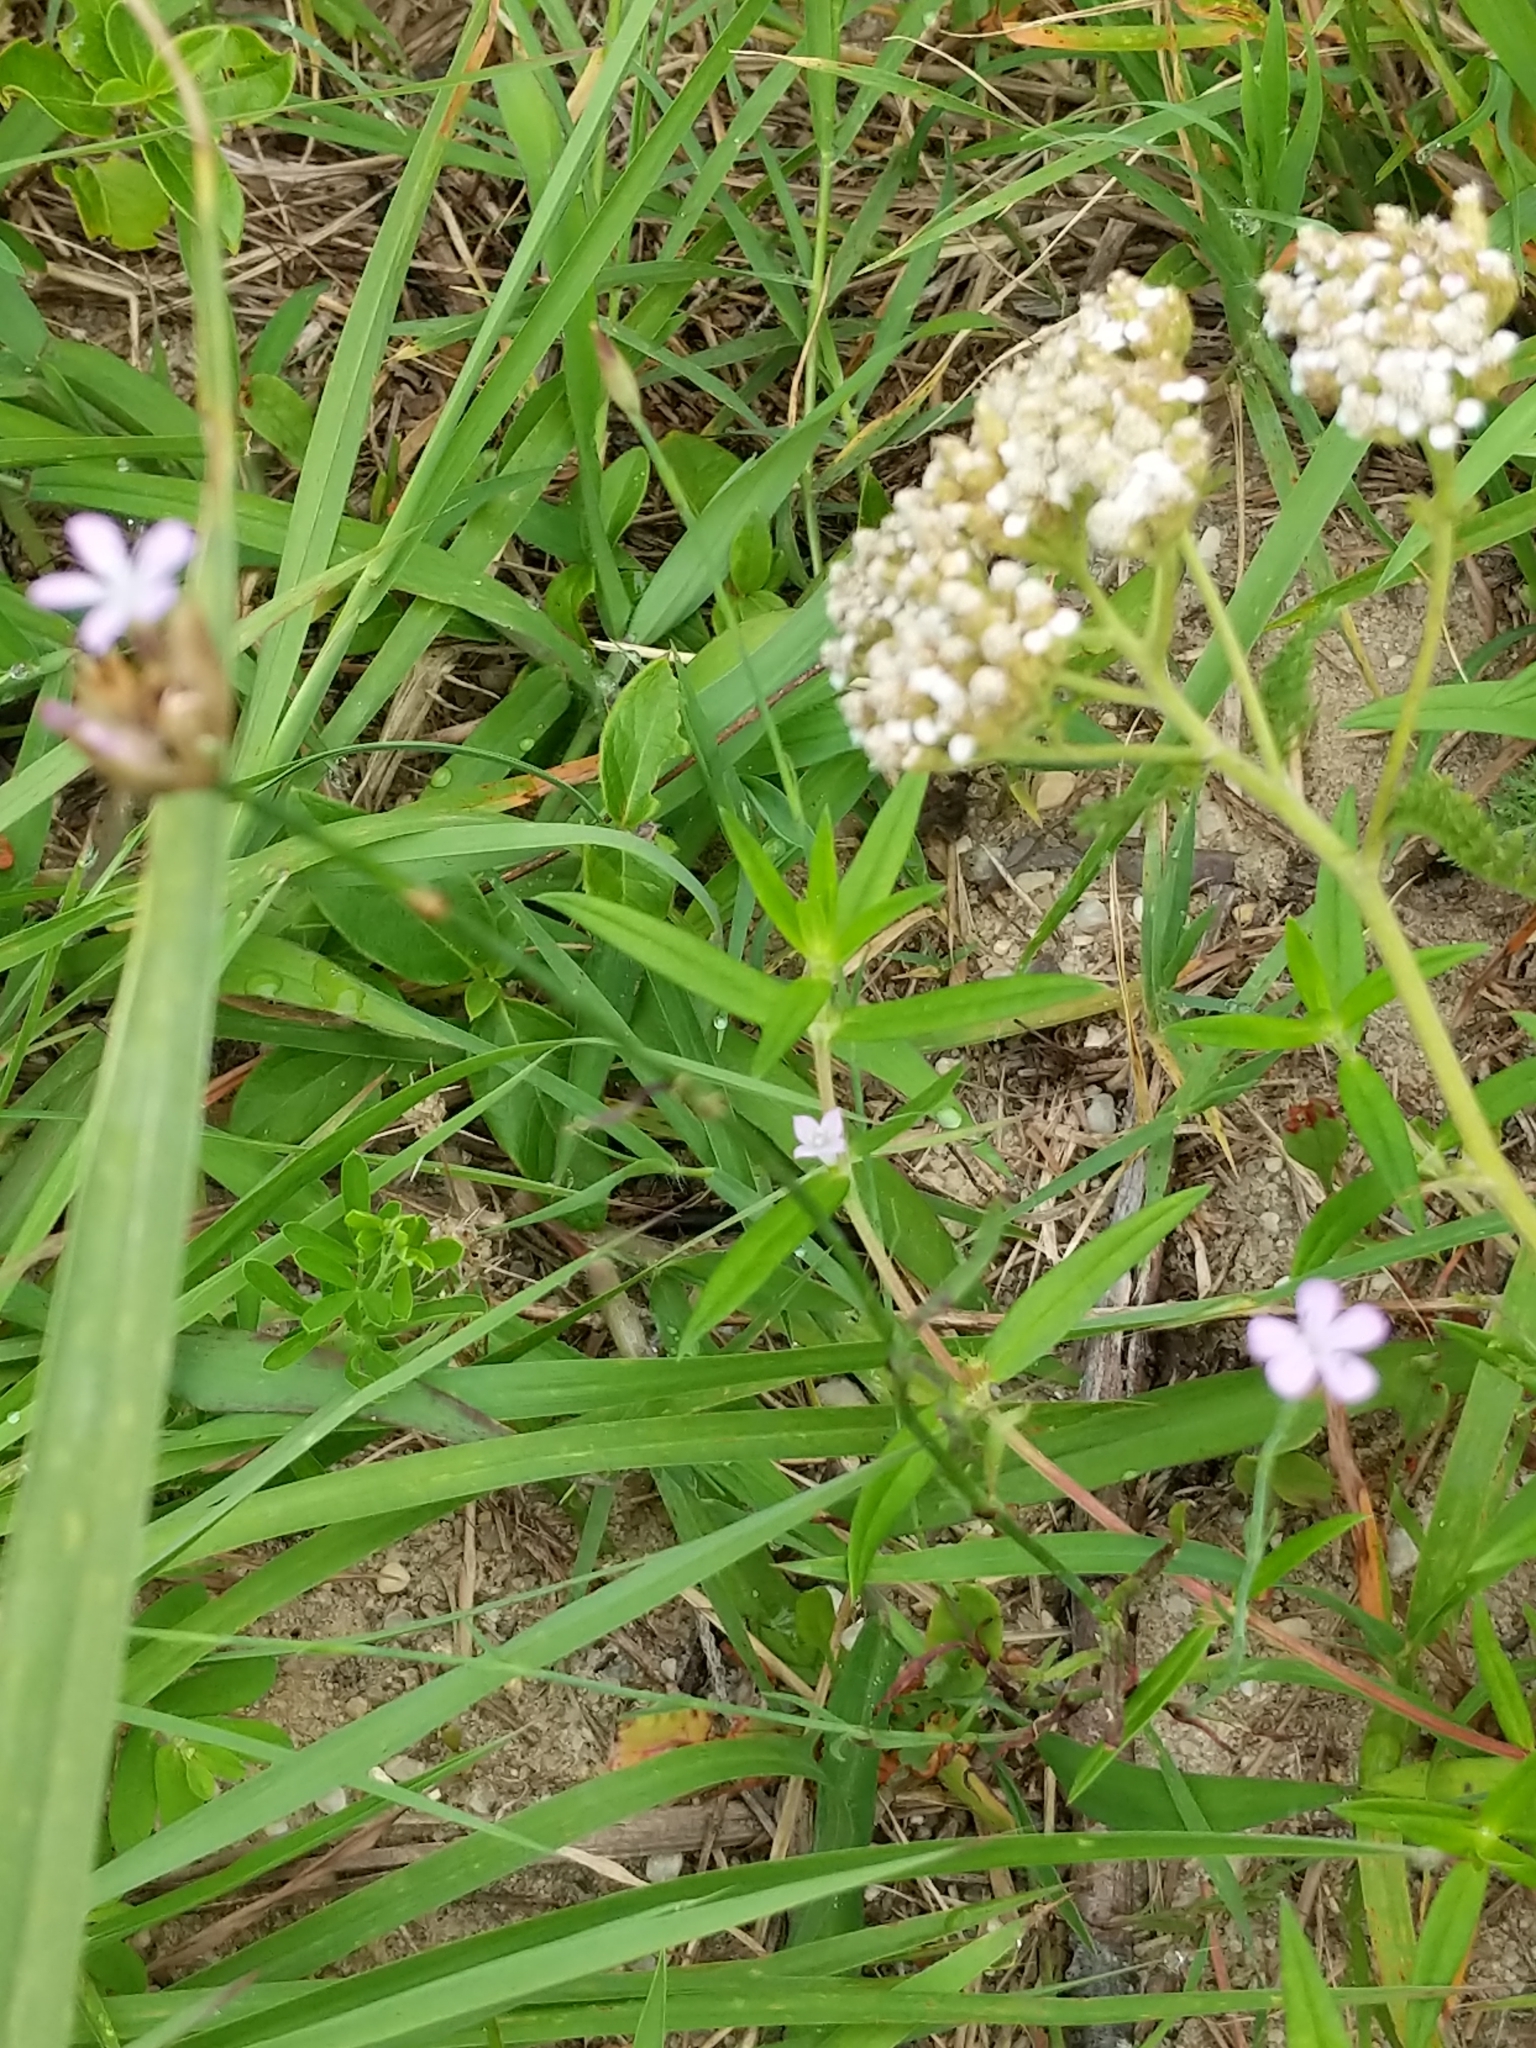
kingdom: Plantae
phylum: Tracheophyta
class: Magnoliopsida
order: Caryophyllales
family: Caryophyllaceae
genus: Petrorhagia
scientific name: Petrorhagia prolifera
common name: Proliferous pink
